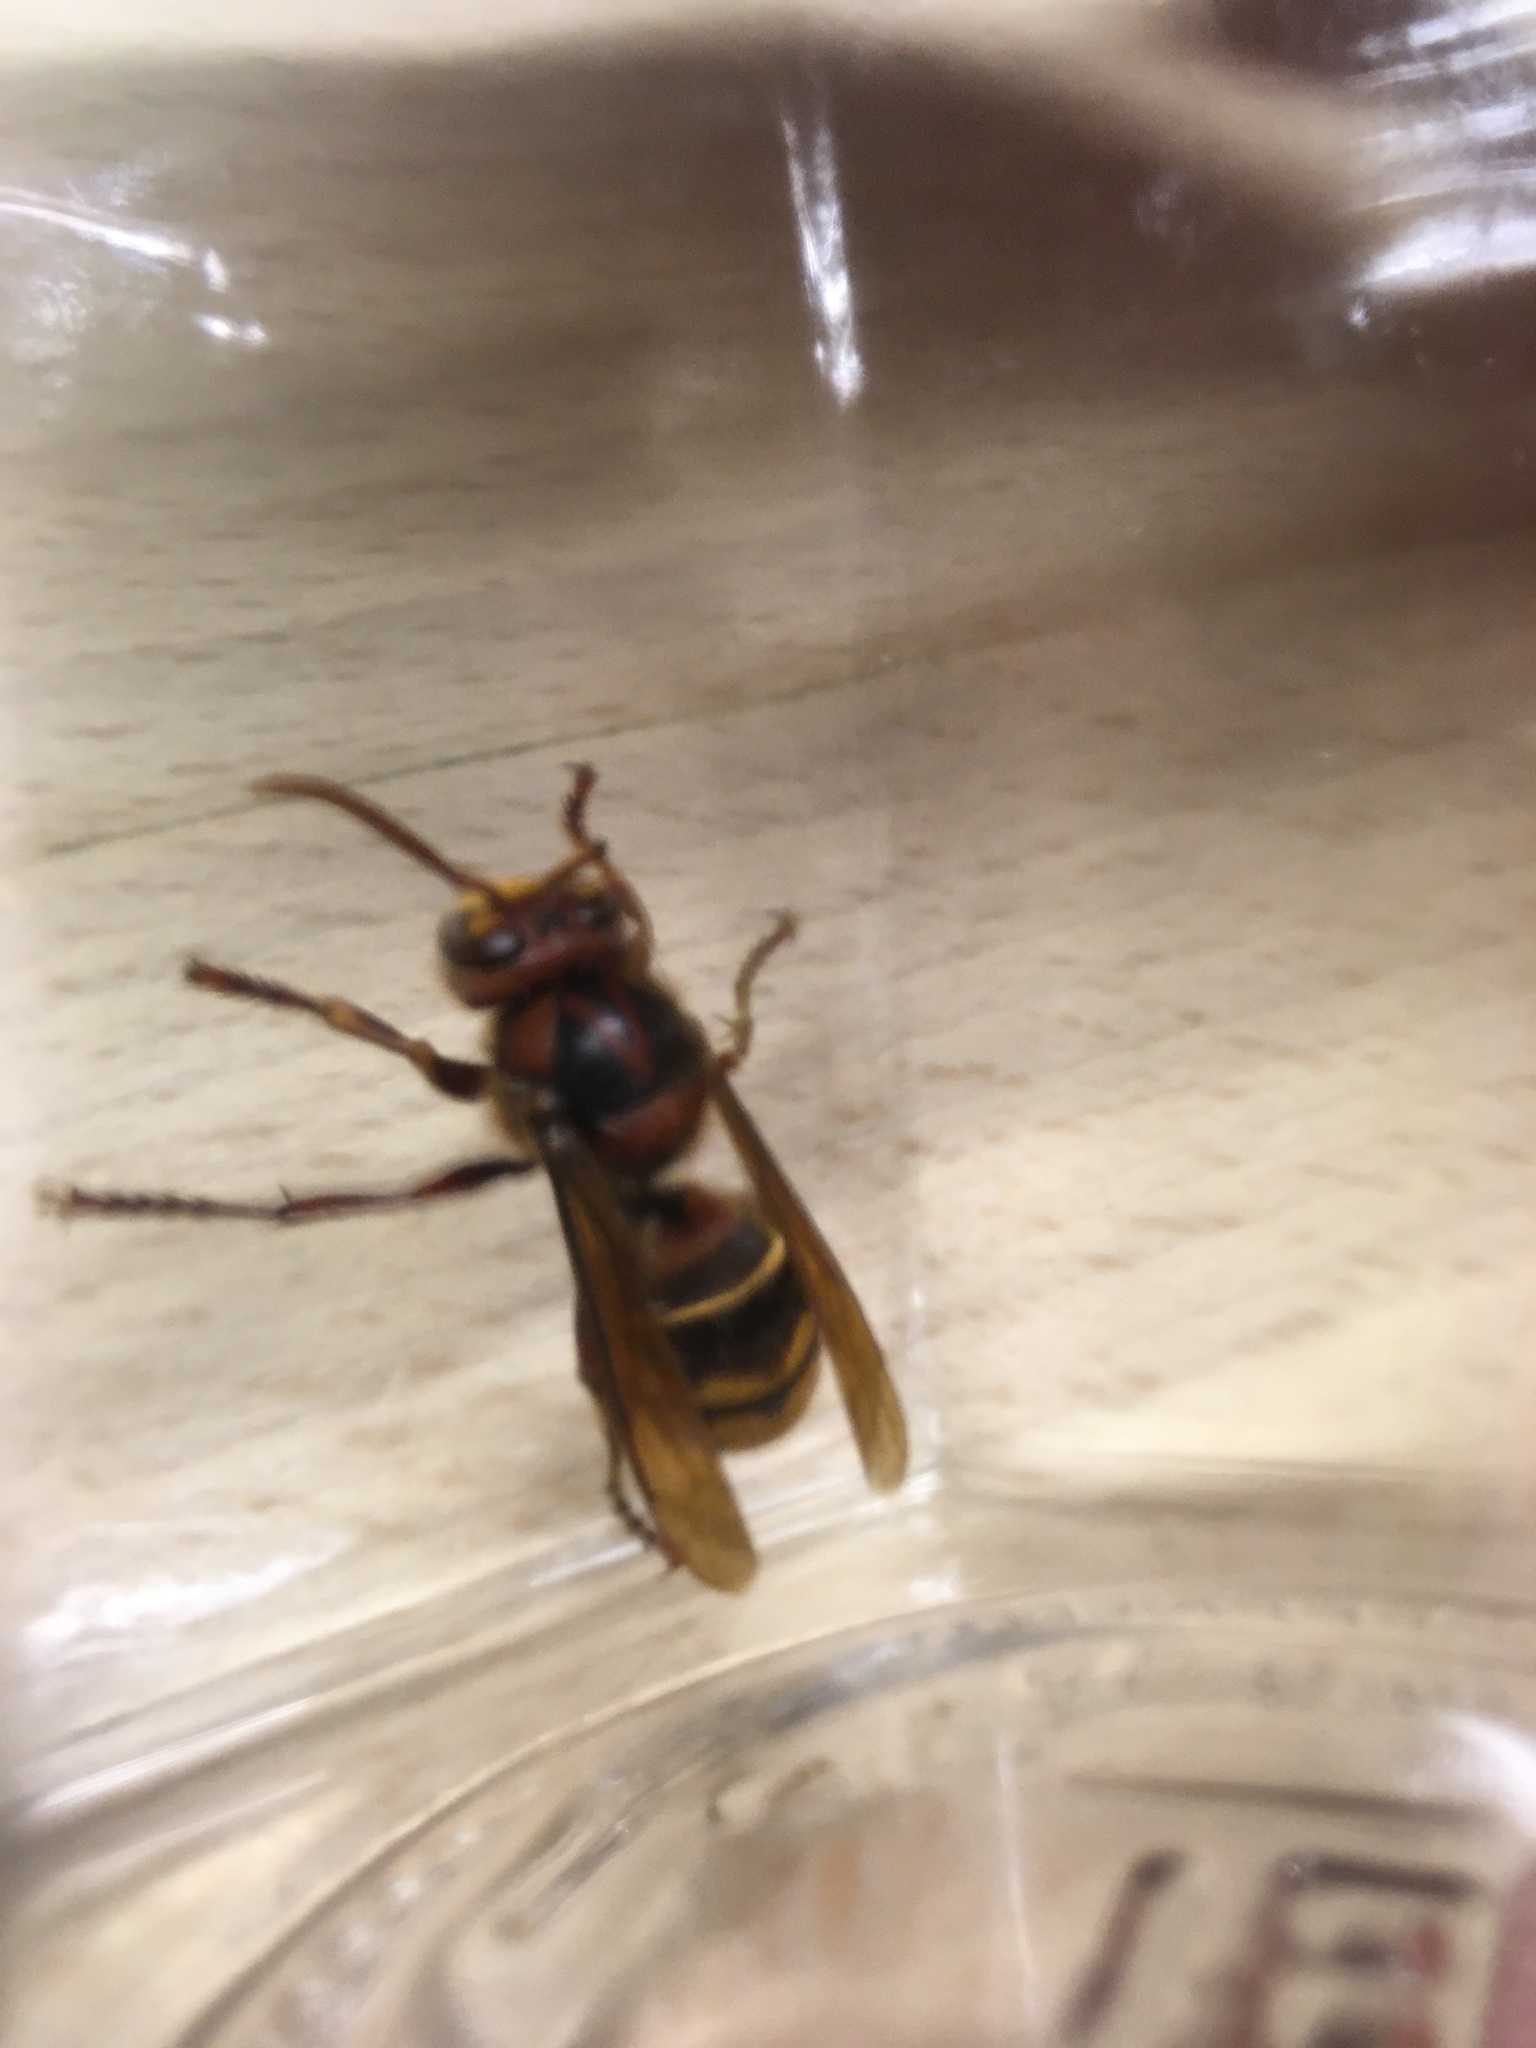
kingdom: Animalia
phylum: Arthropoda
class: Insecta
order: Hymenoptera
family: Vespidae
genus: Vespa
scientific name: Vespa crabro
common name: Hornet
